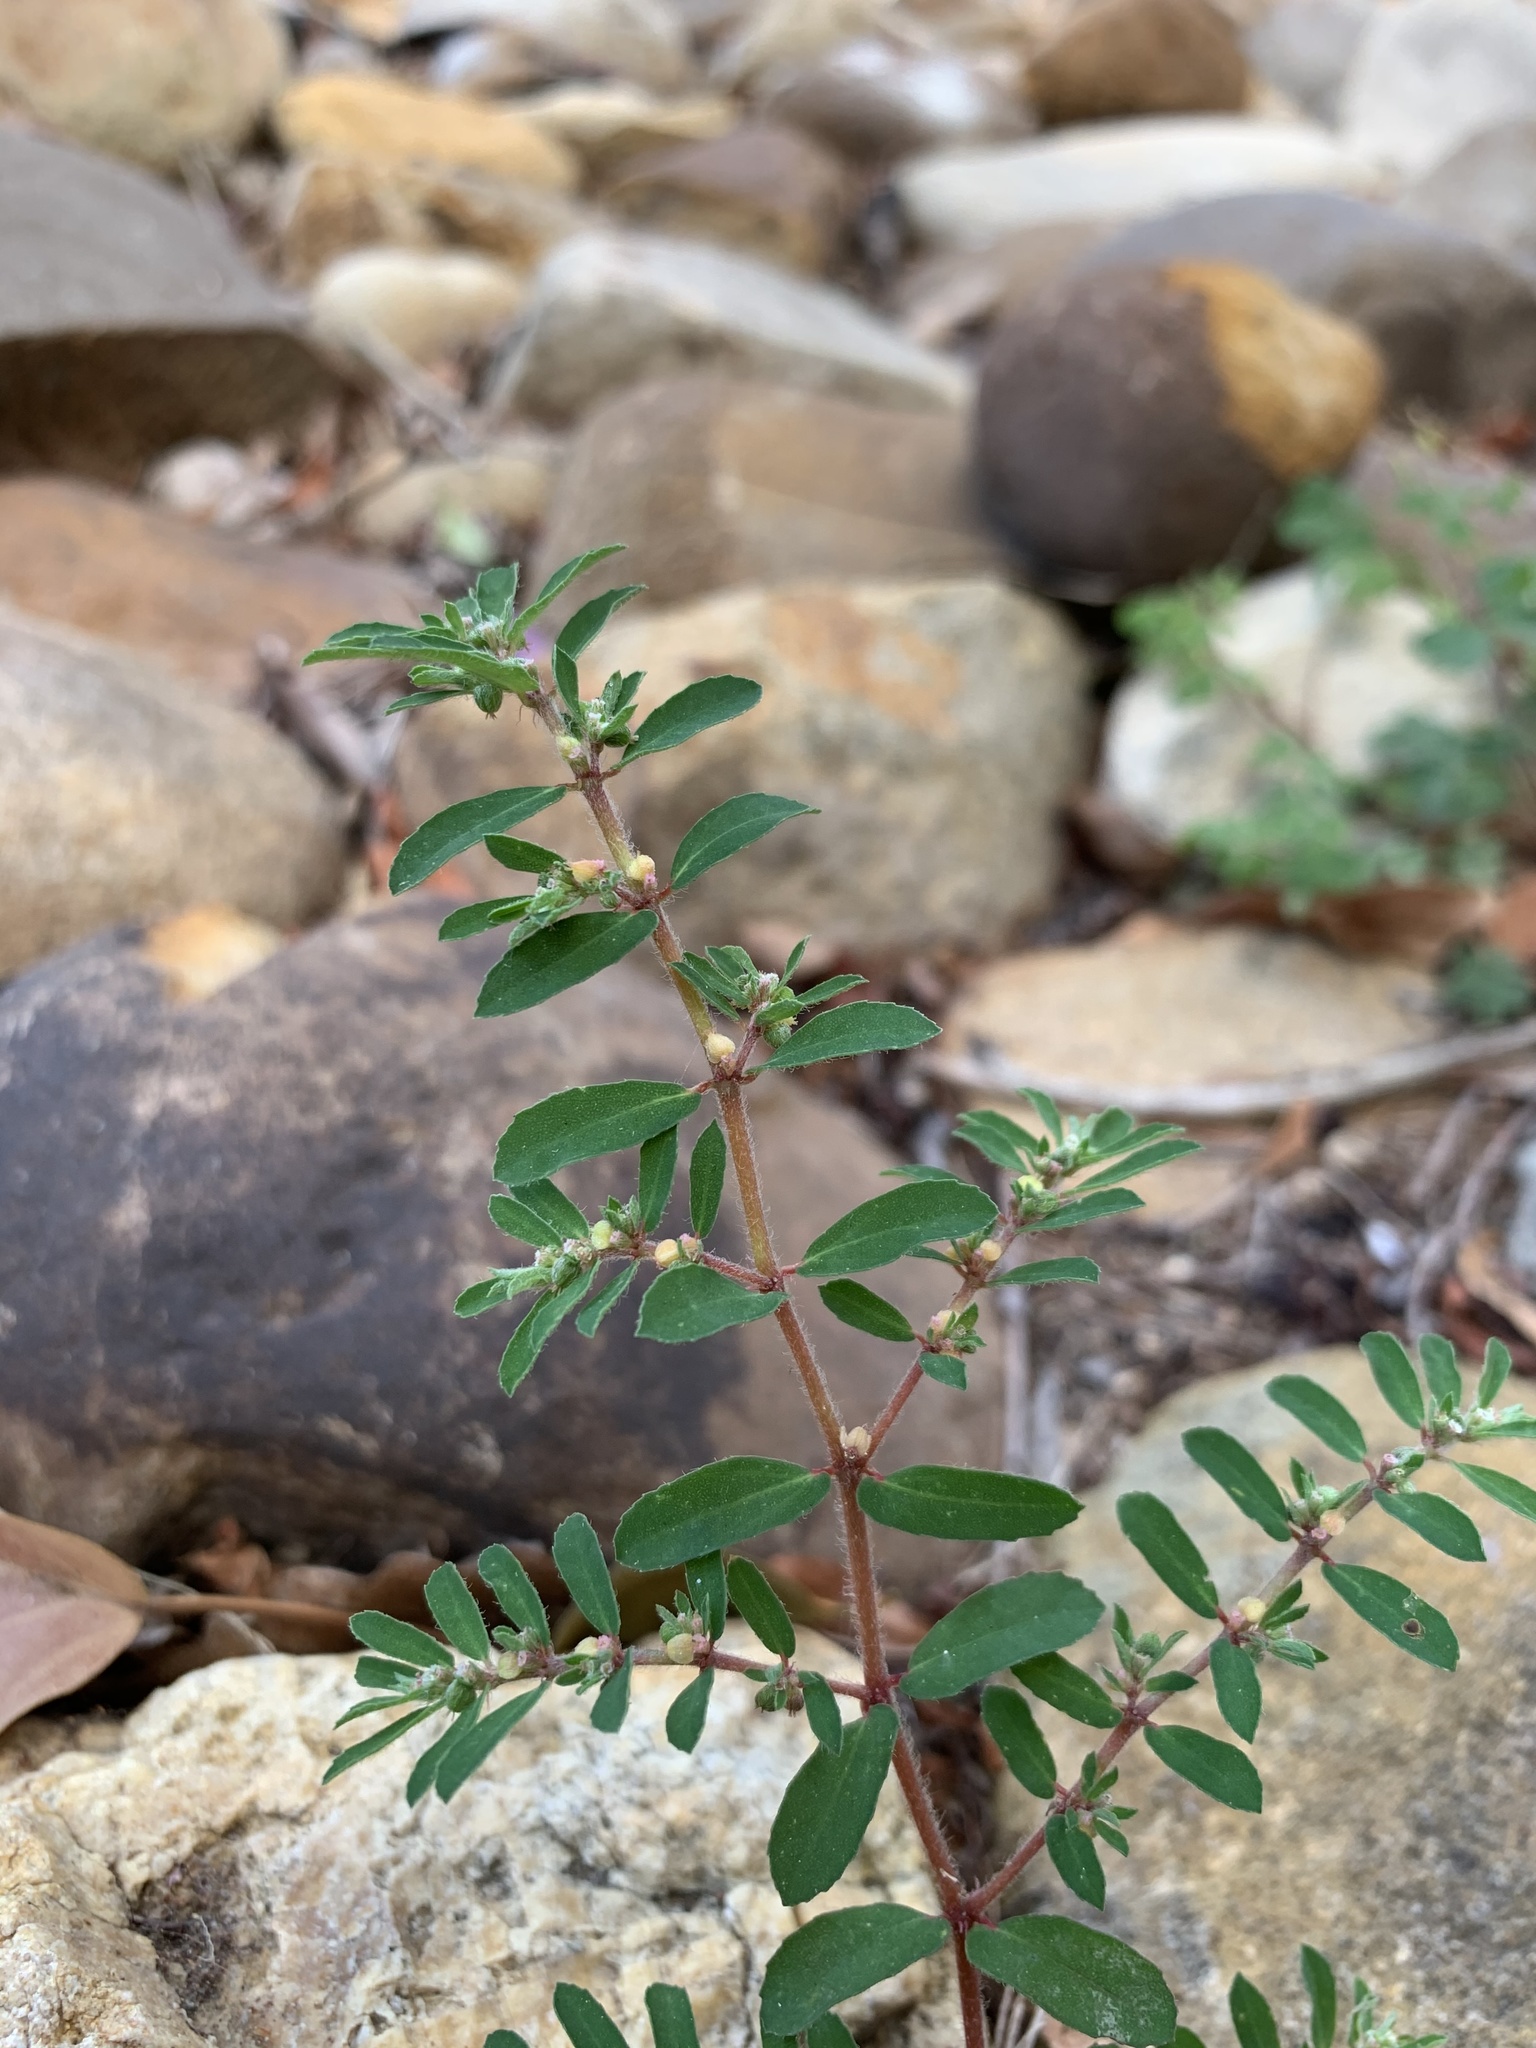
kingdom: Plantae
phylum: Tracheophyta
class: Magnoliopsida
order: Malpighiales
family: Euphorbiaceae
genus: Euphorbia
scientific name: Euphorbia maculata
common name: Spotted spurge
